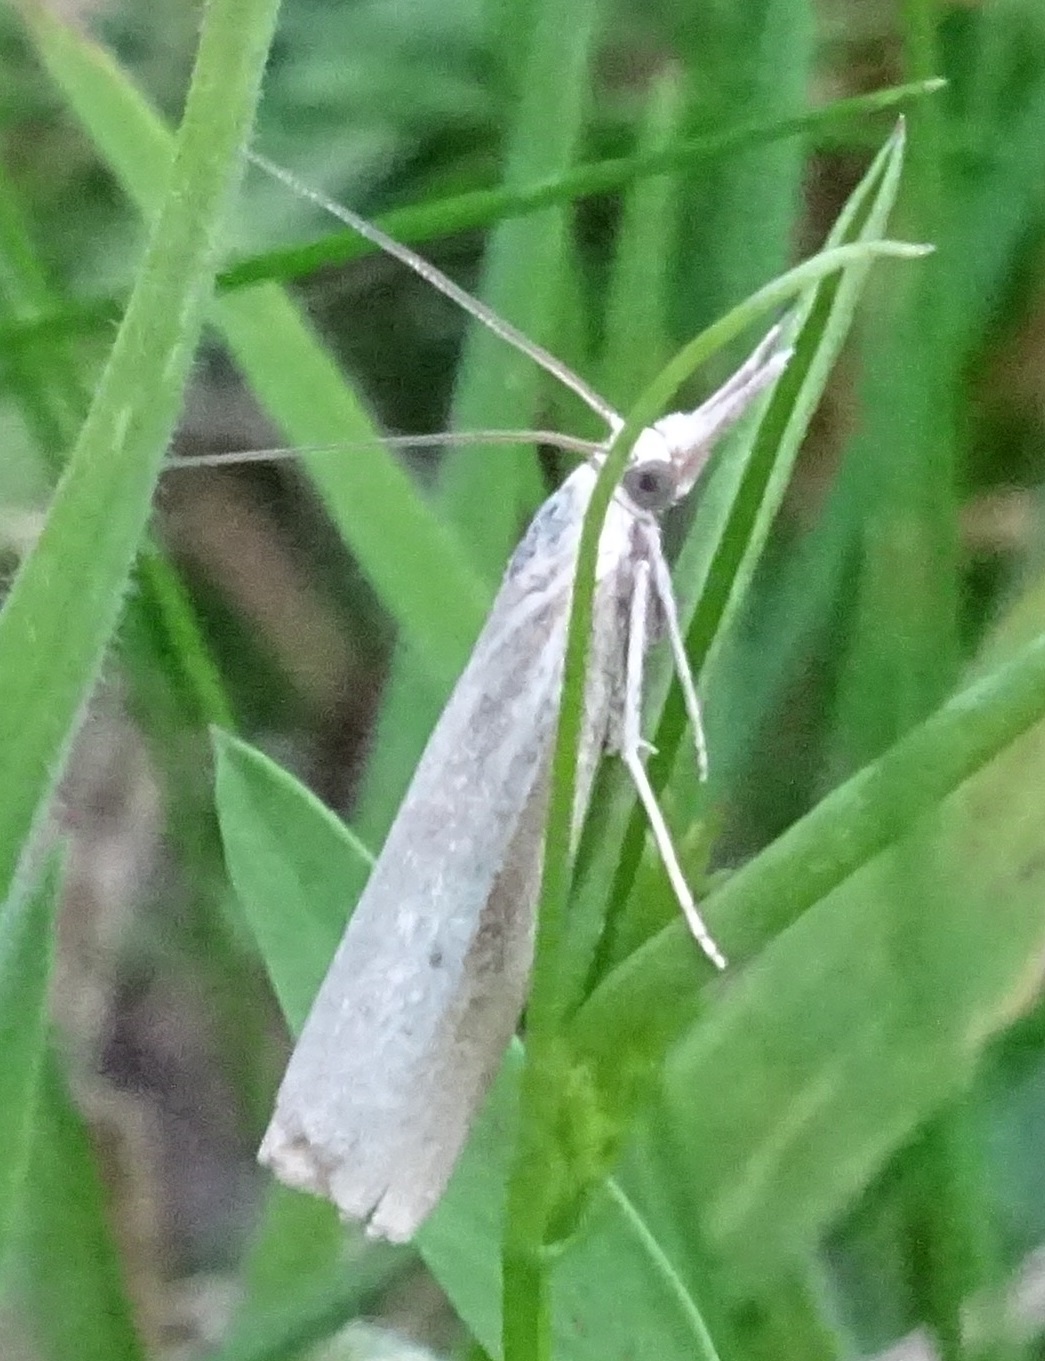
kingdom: Animalia
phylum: Arthropoda
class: Insecta
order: Lepidoptera
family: Crambidae
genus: Crambus
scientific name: Crambus perlellus
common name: Yellow satin veneer
